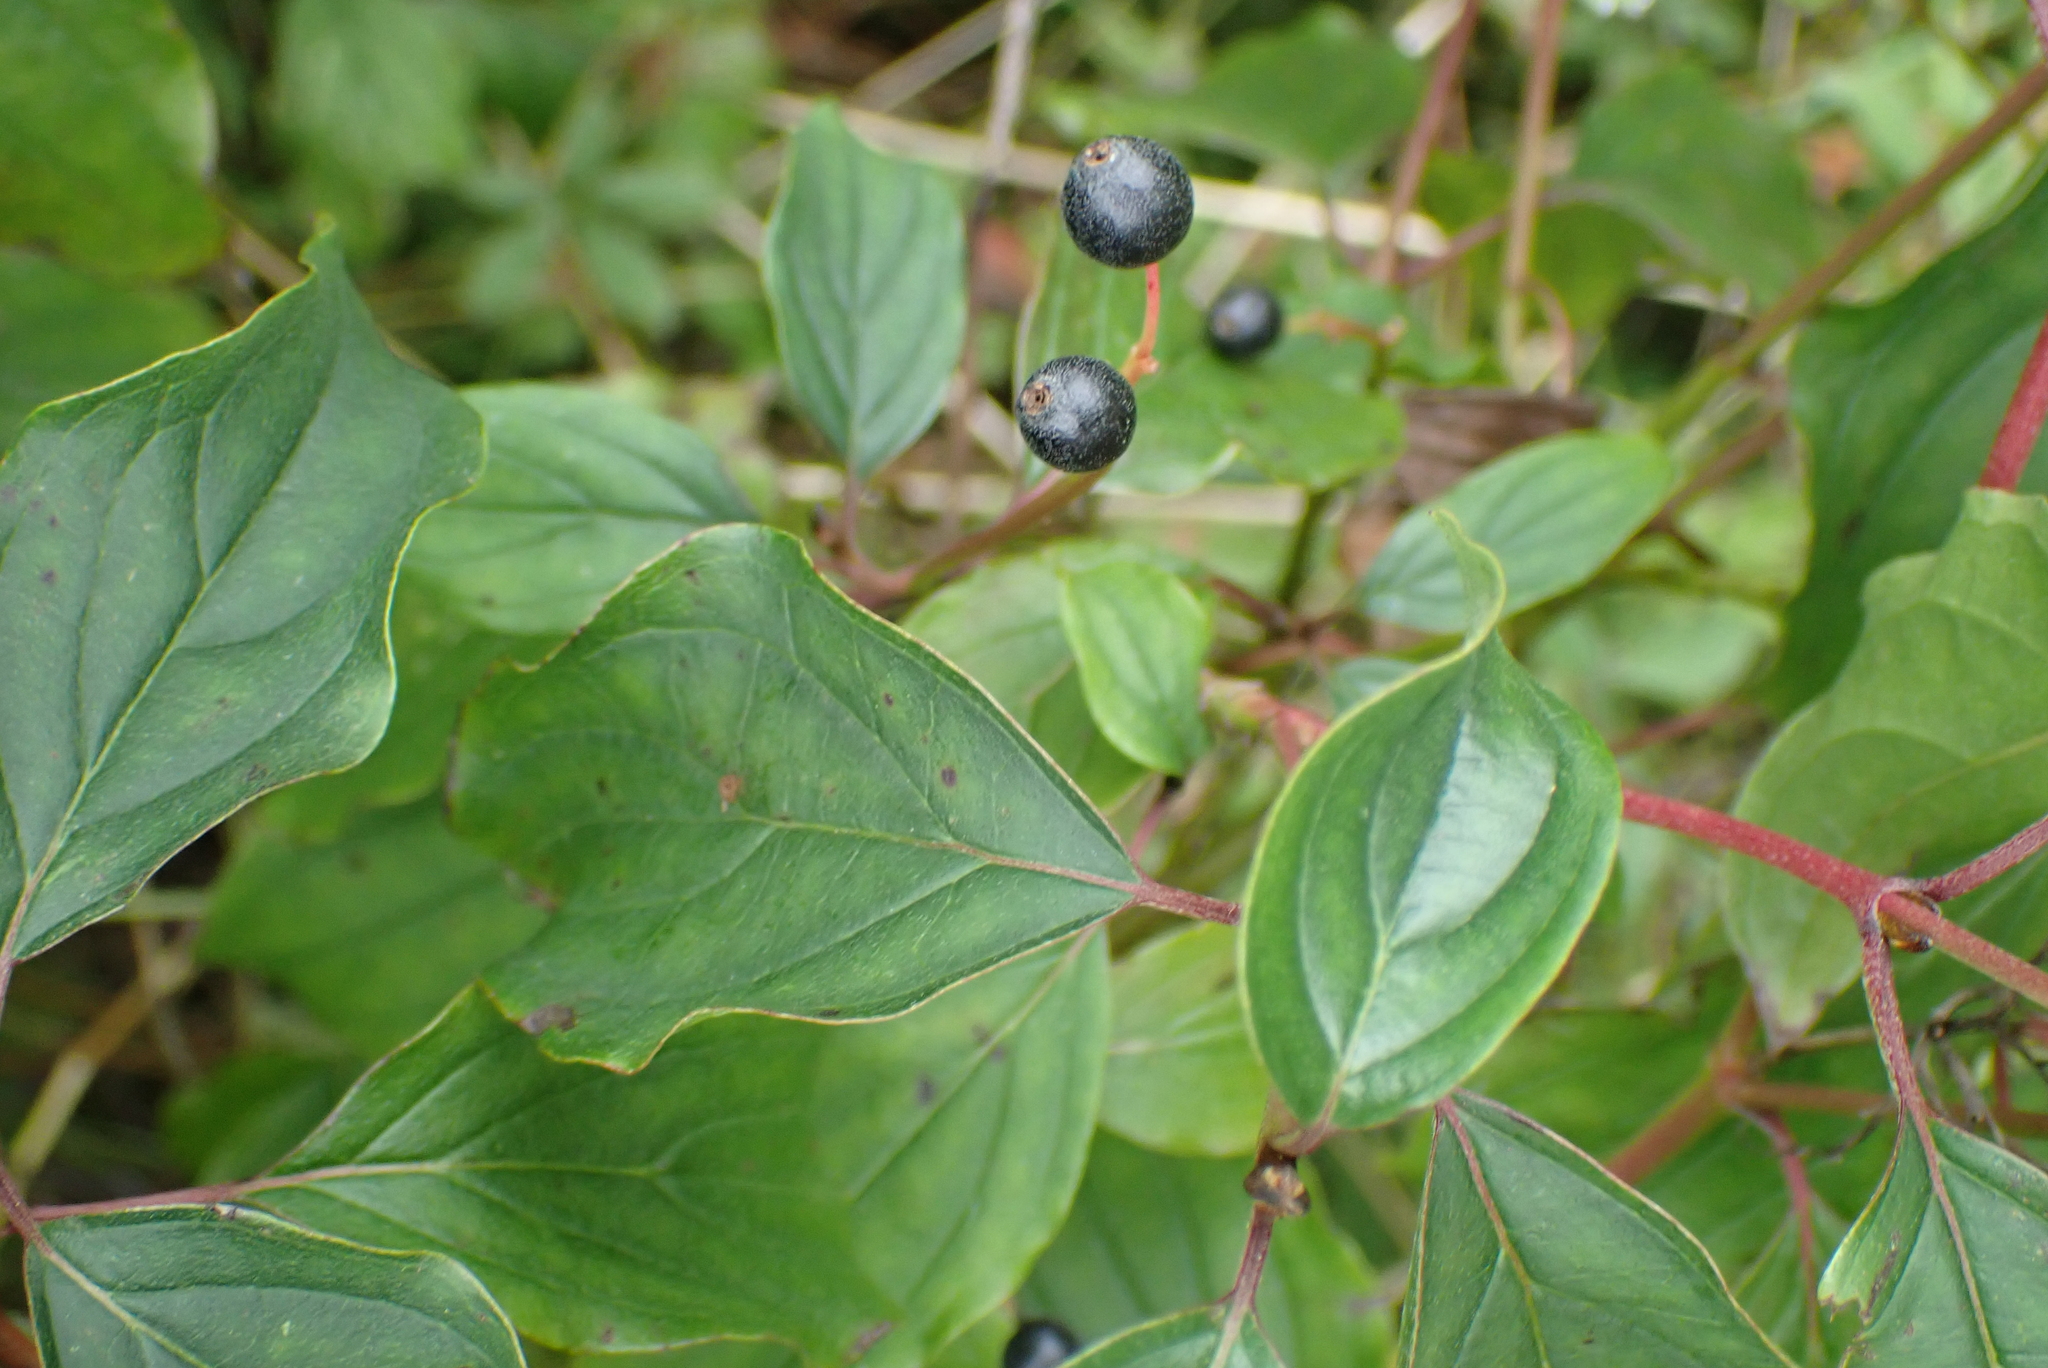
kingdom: Plantae
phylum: Tracheophyta
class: Magnoliopsida
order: Cornales
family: Cornaceae
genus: Cornus
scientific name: Cornus sanguinea
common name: Dogwood
